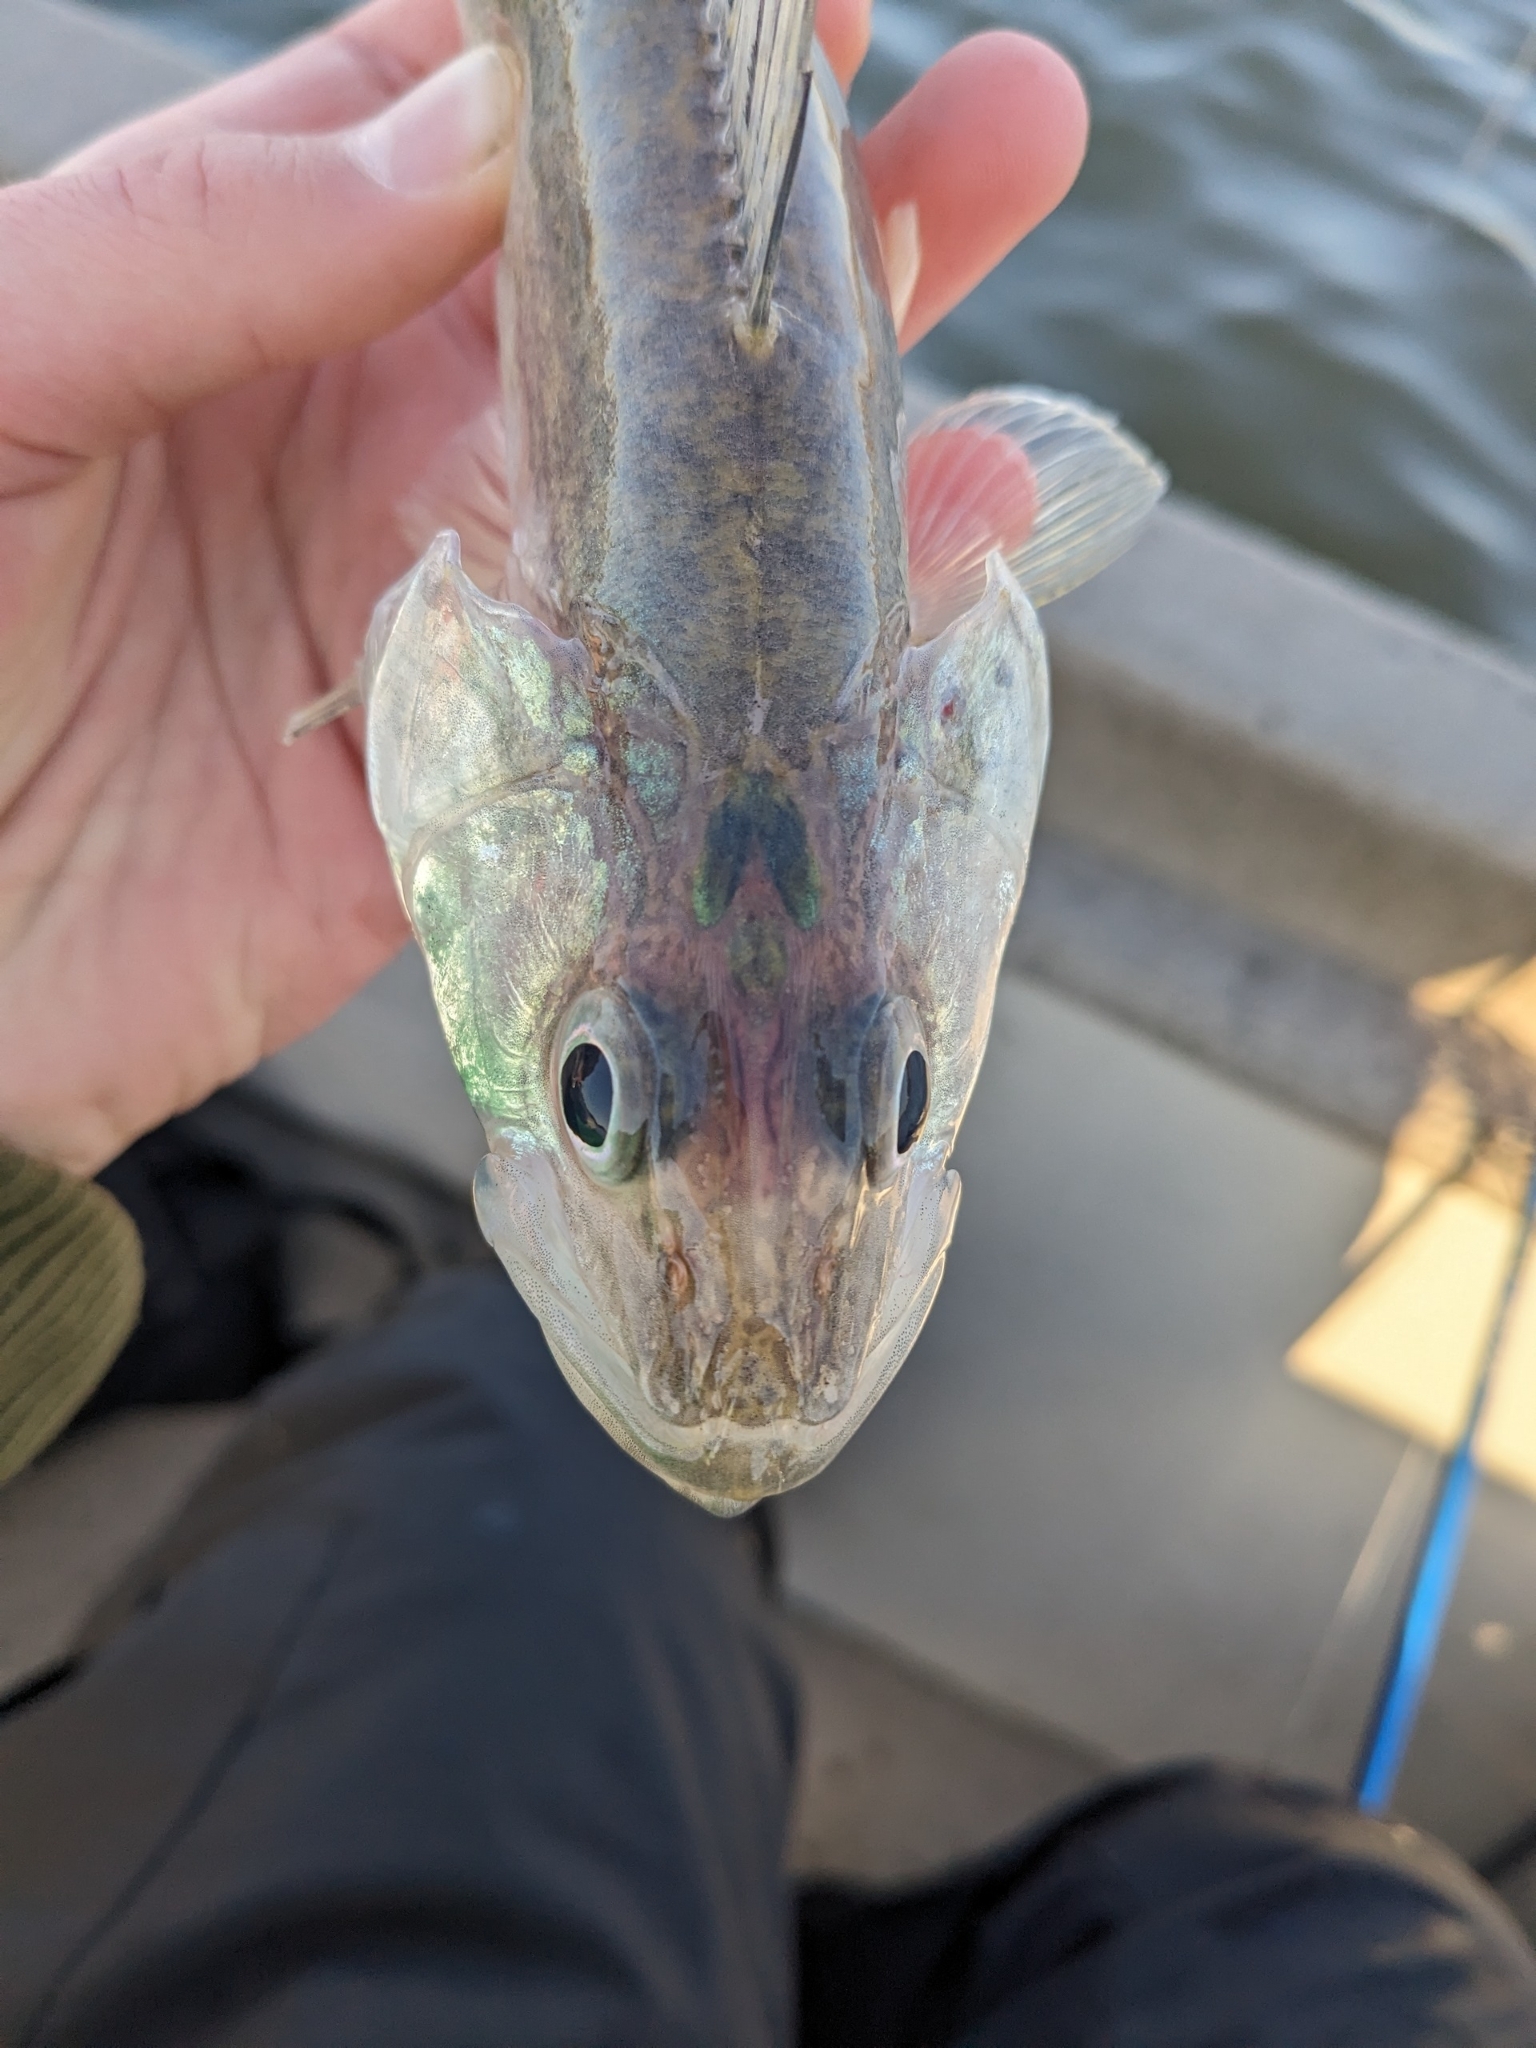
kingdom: Animalia
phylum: Chordata
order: Perciformes
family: Percidae
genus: Sander
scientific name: Sander vitreus
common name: Walleye
